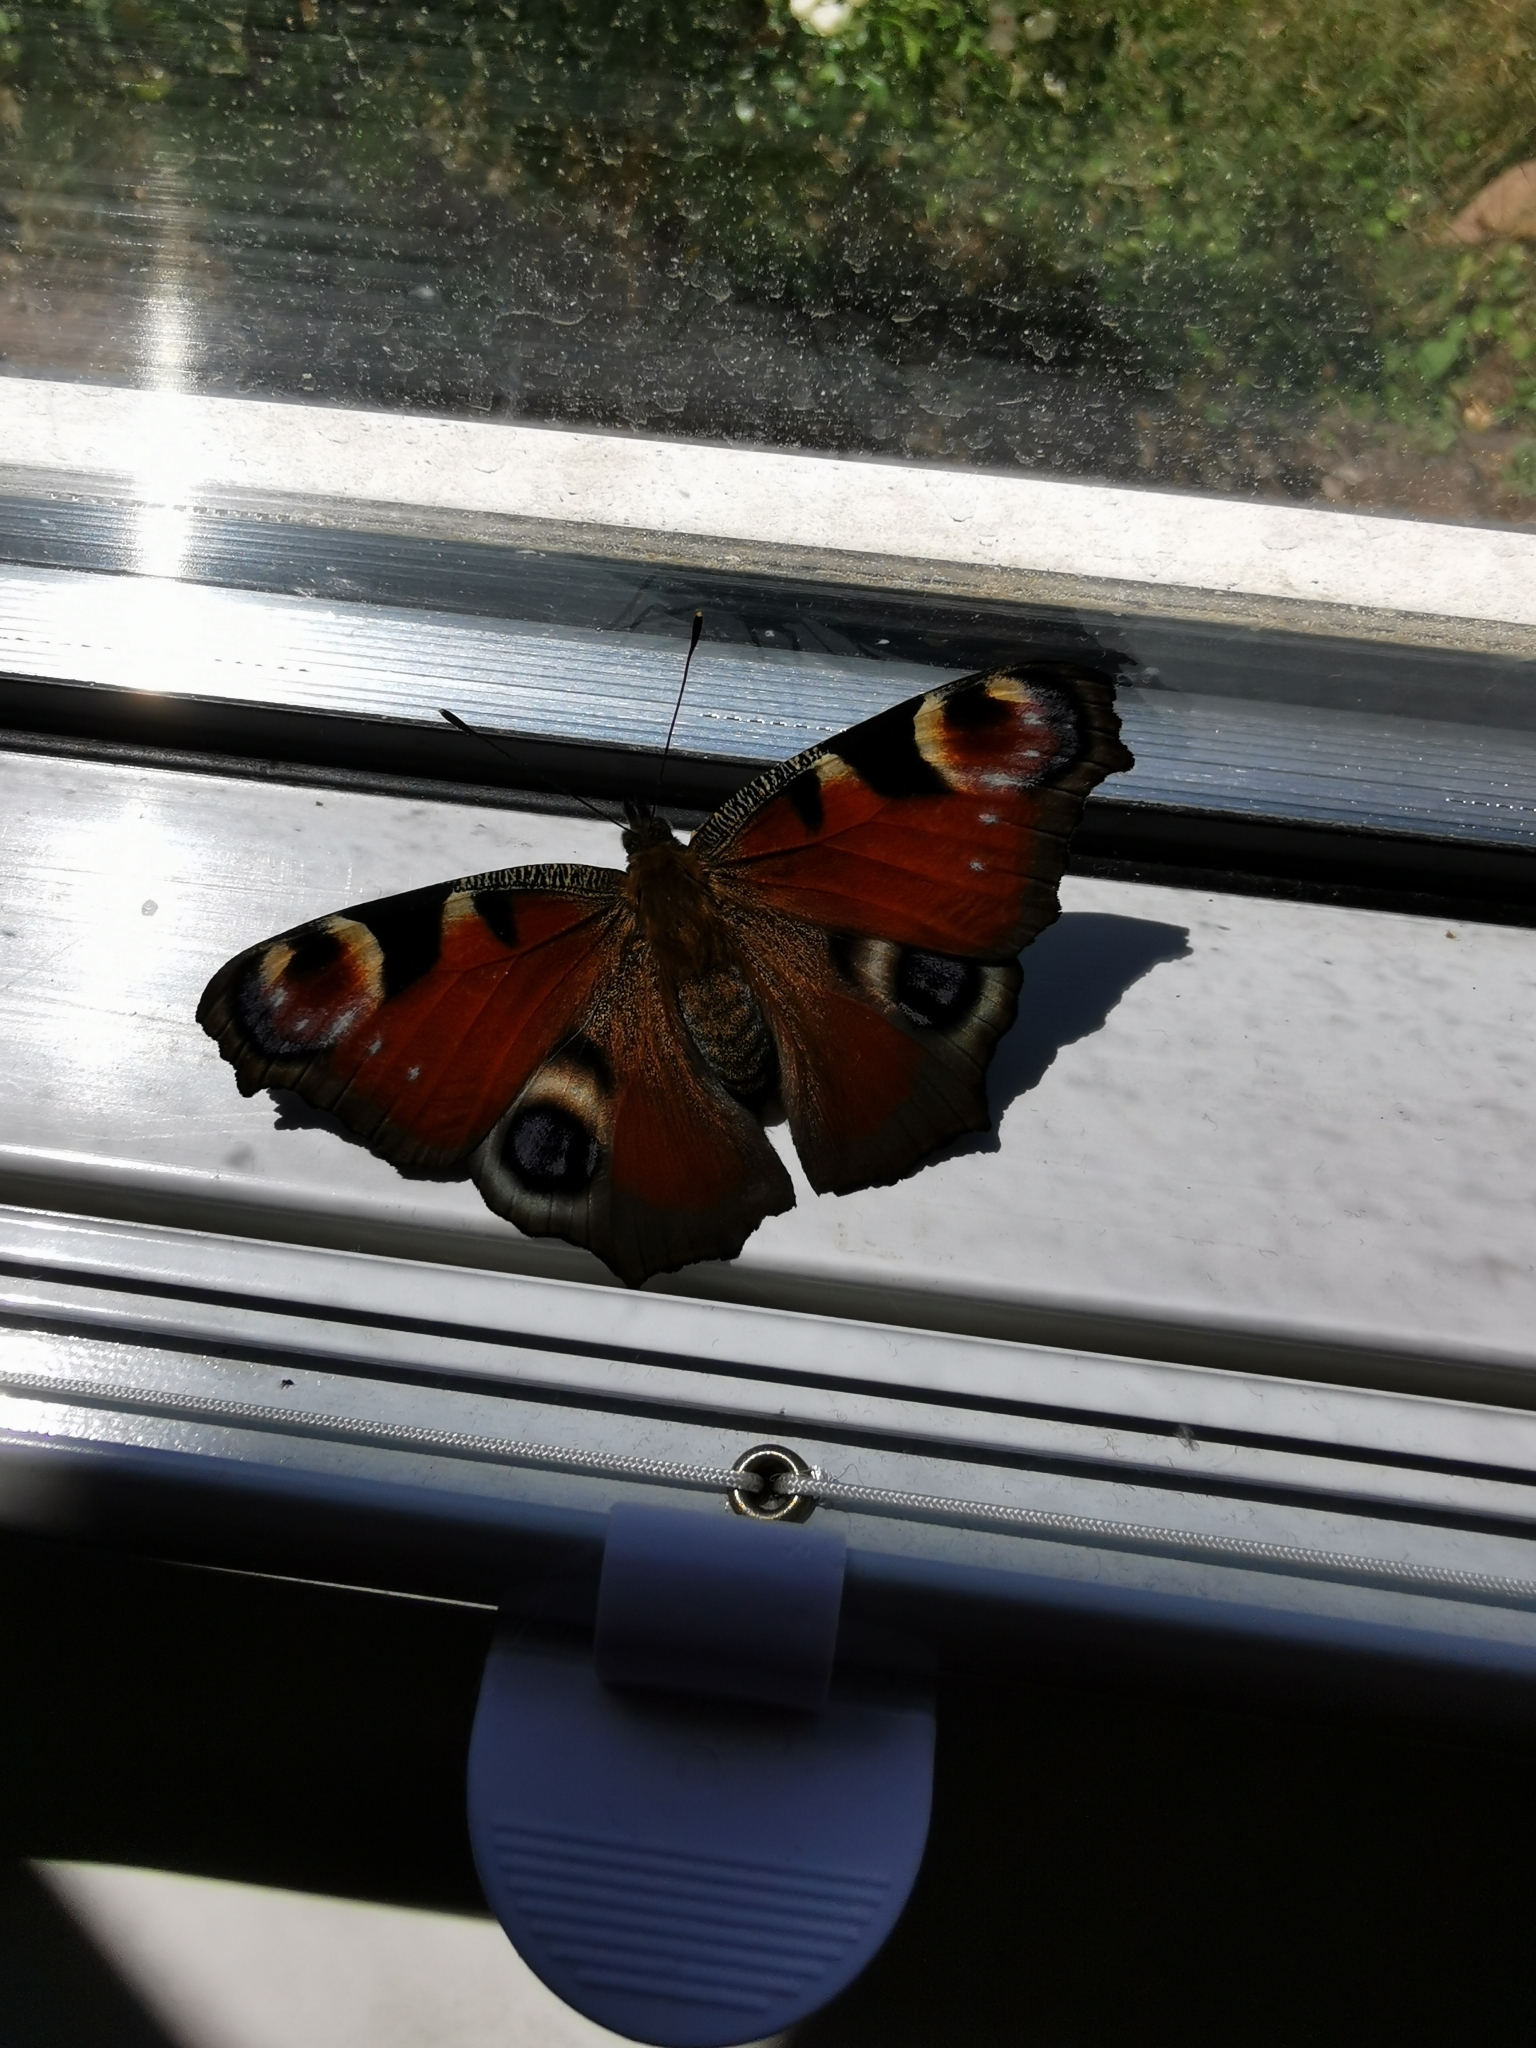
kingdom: Animalia
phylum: Arthropoda
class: Insecta
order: Lepidoptera
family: Nymphalidae
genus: Aglais
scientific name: Aglais io
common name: Peacock
